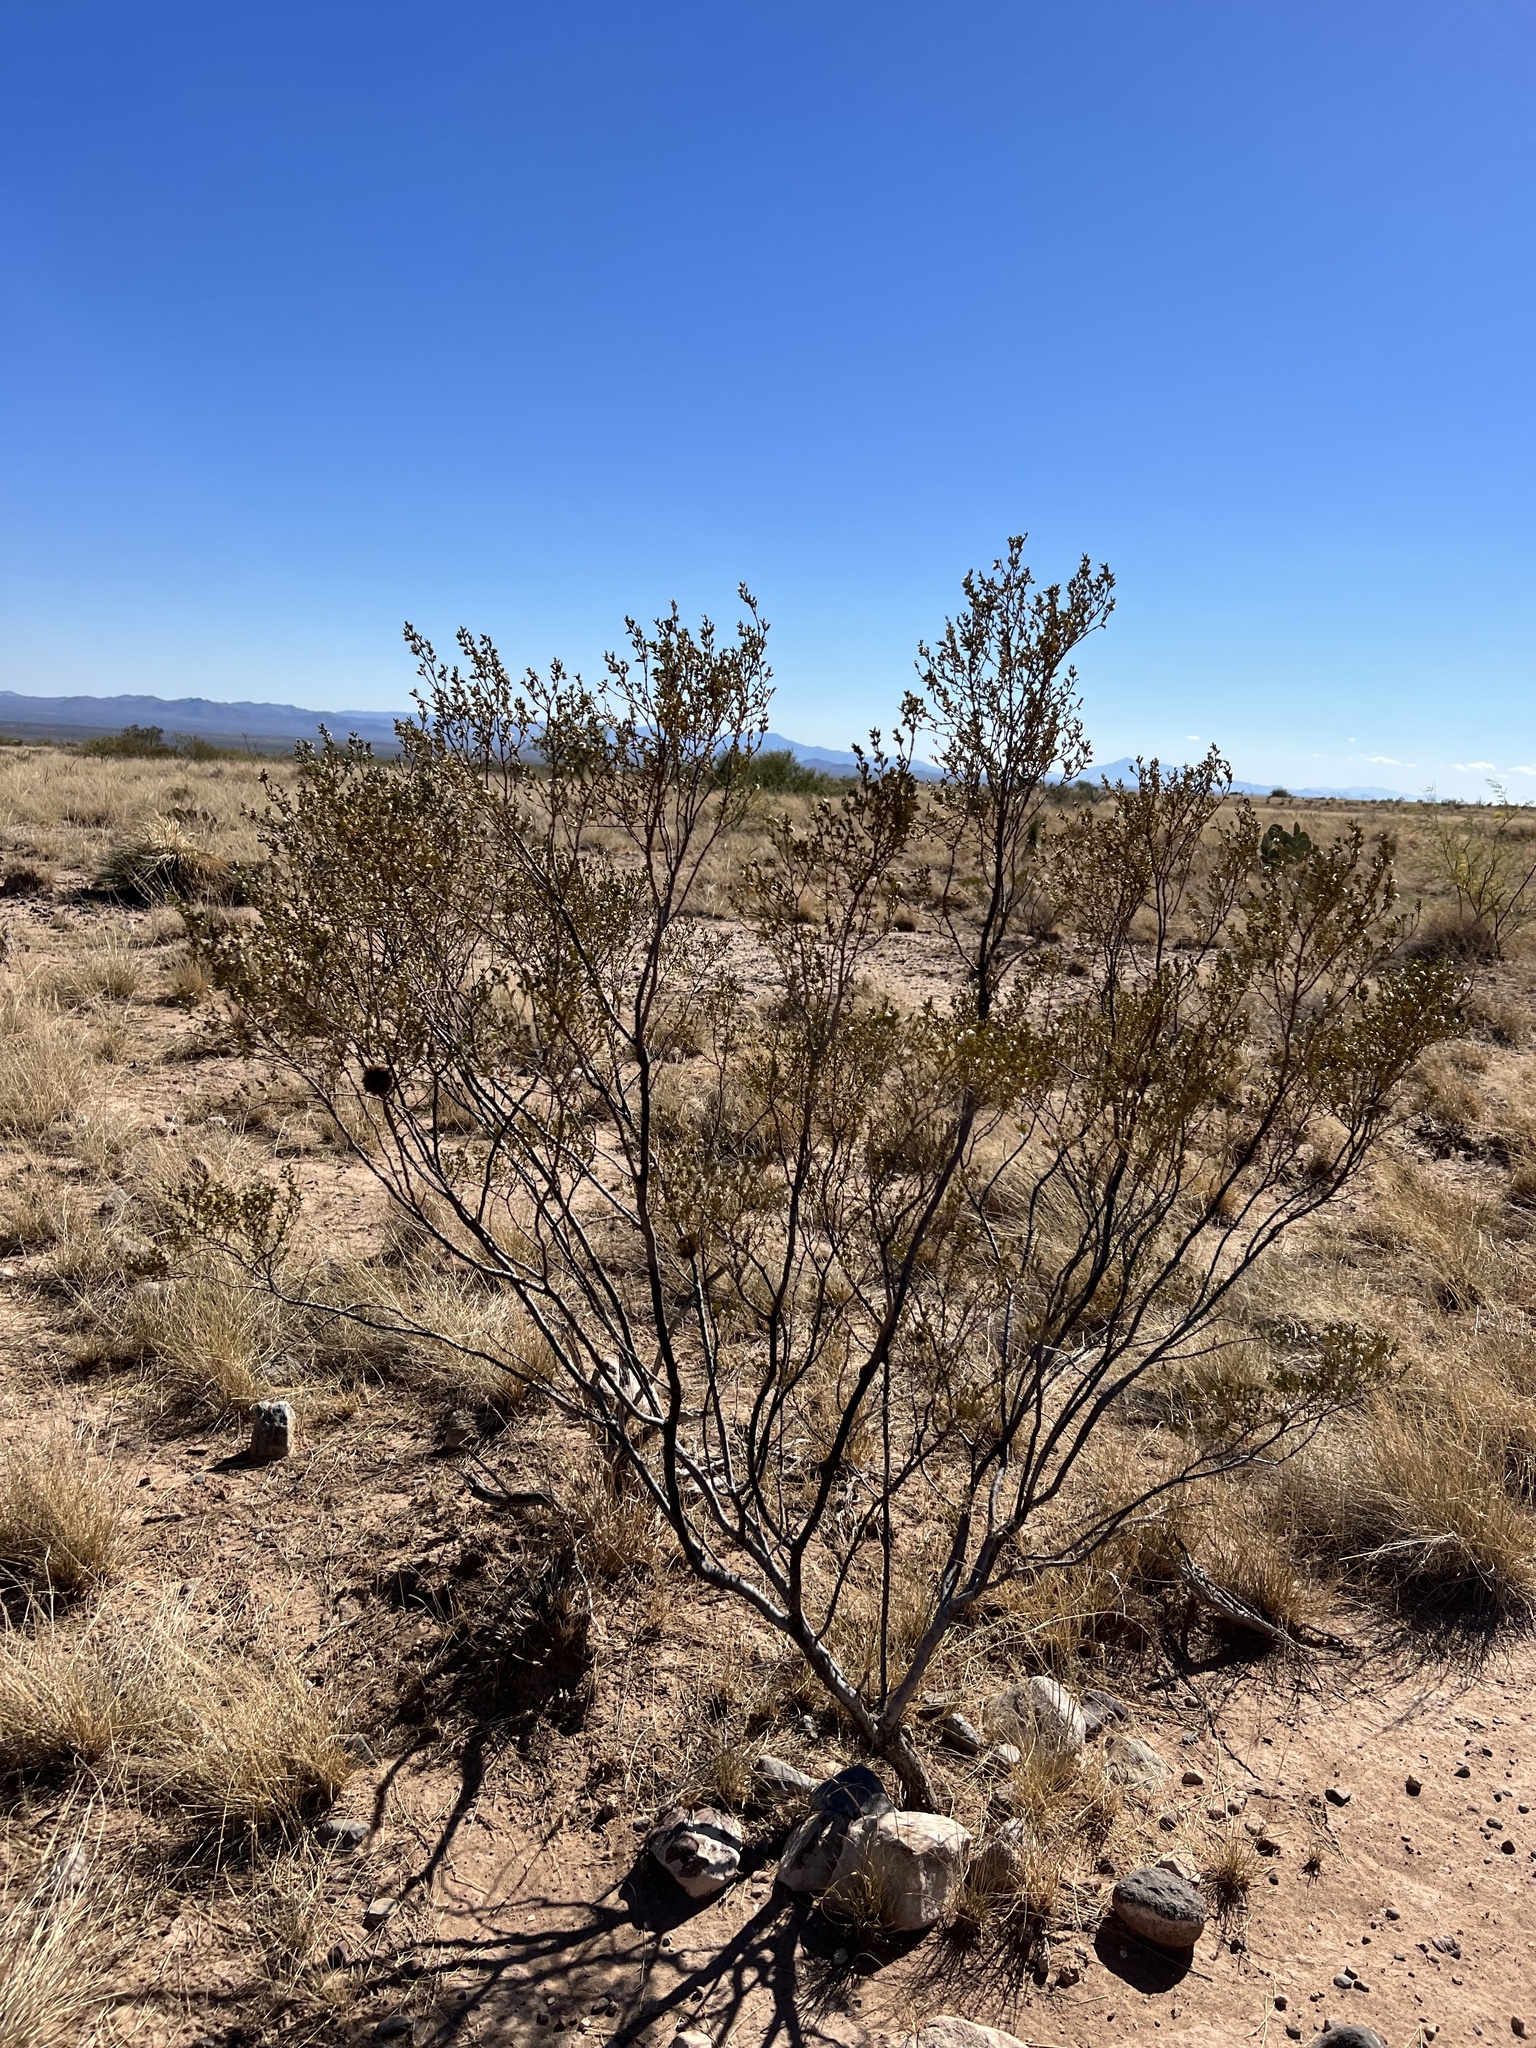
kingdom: Plantae
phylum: Tracheophyta
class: Magnoliopsida
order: Zygophyllales
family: Zygophyllaceae
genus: Larrea
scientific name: Larrea tridentata
